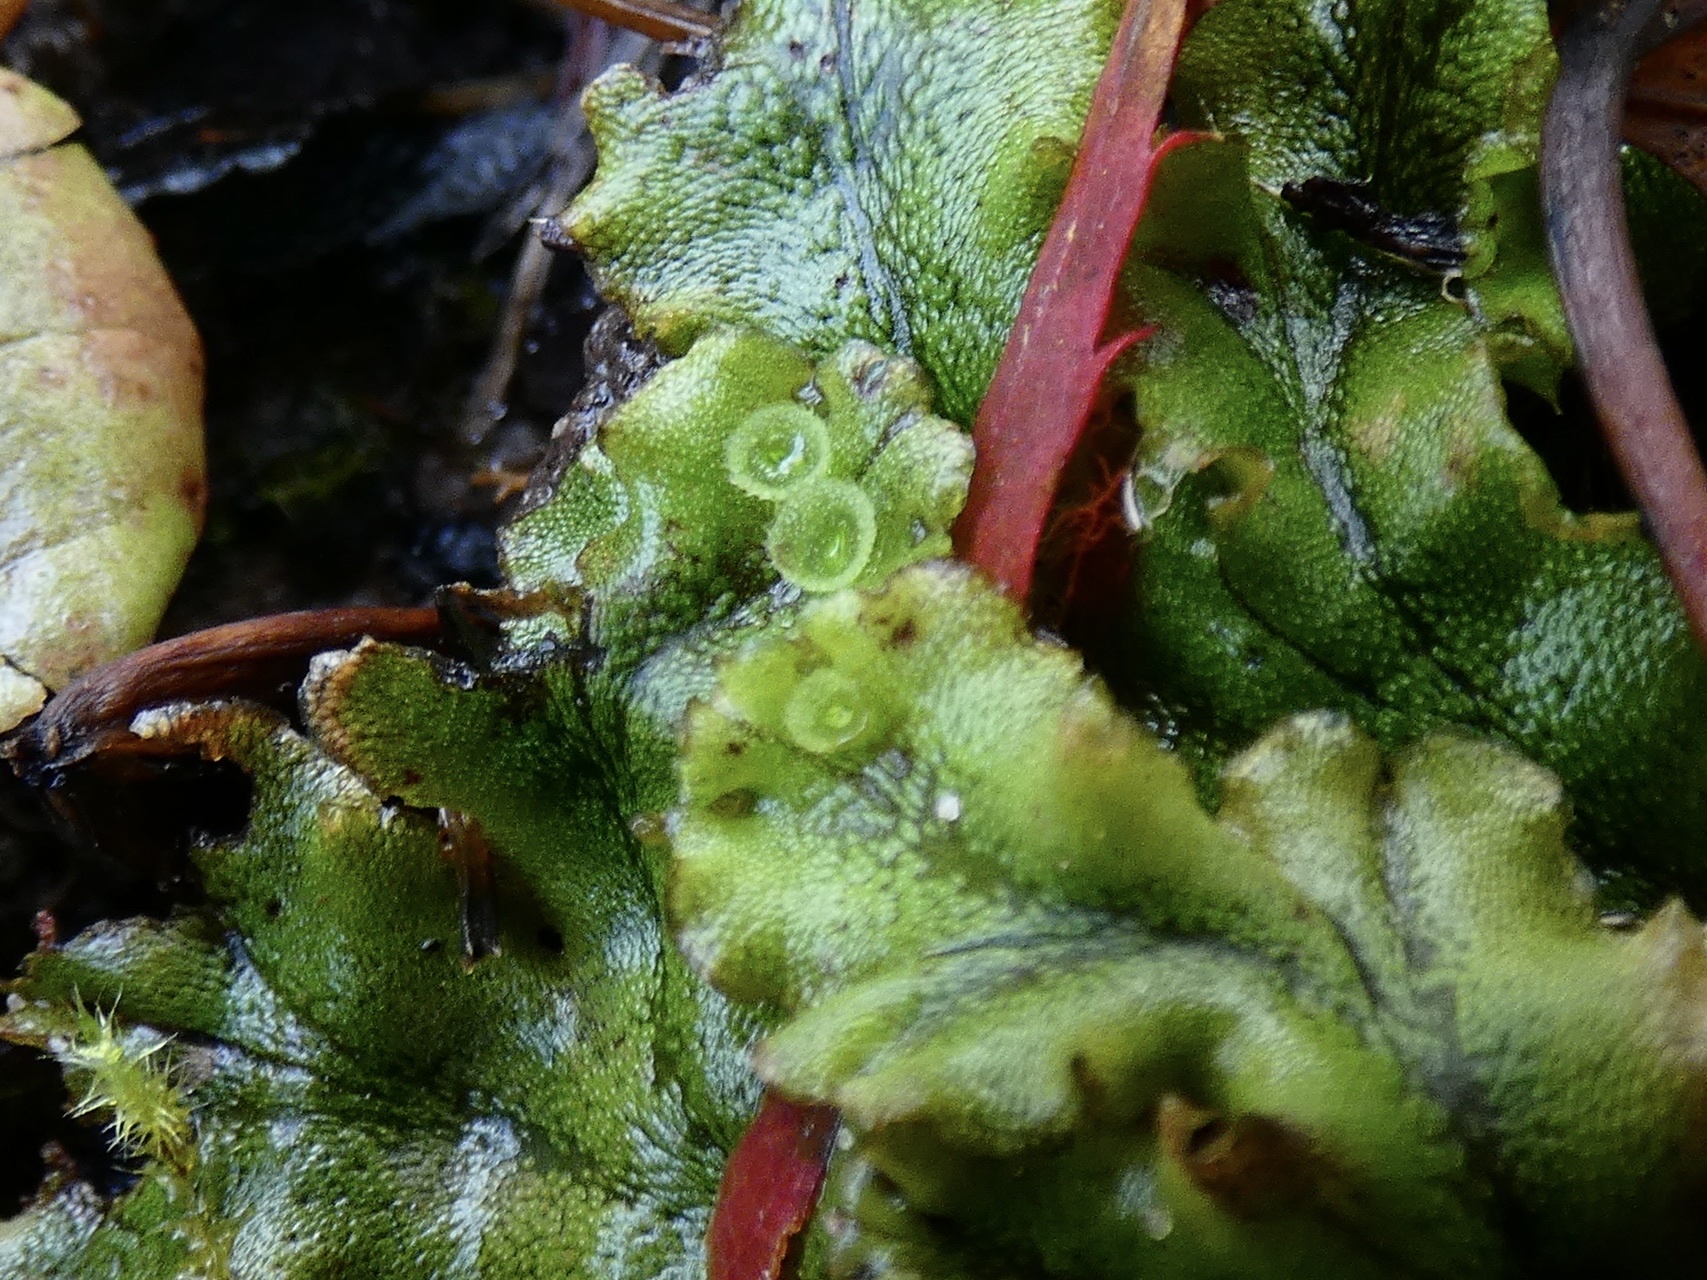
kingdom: Plantae
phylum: Marchantiophyta
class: Marchantiopsida
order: Marchantiales
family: Marchantiaceae
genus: Marchantia
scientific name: Marchantia polymorpha
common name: Common liverwort
